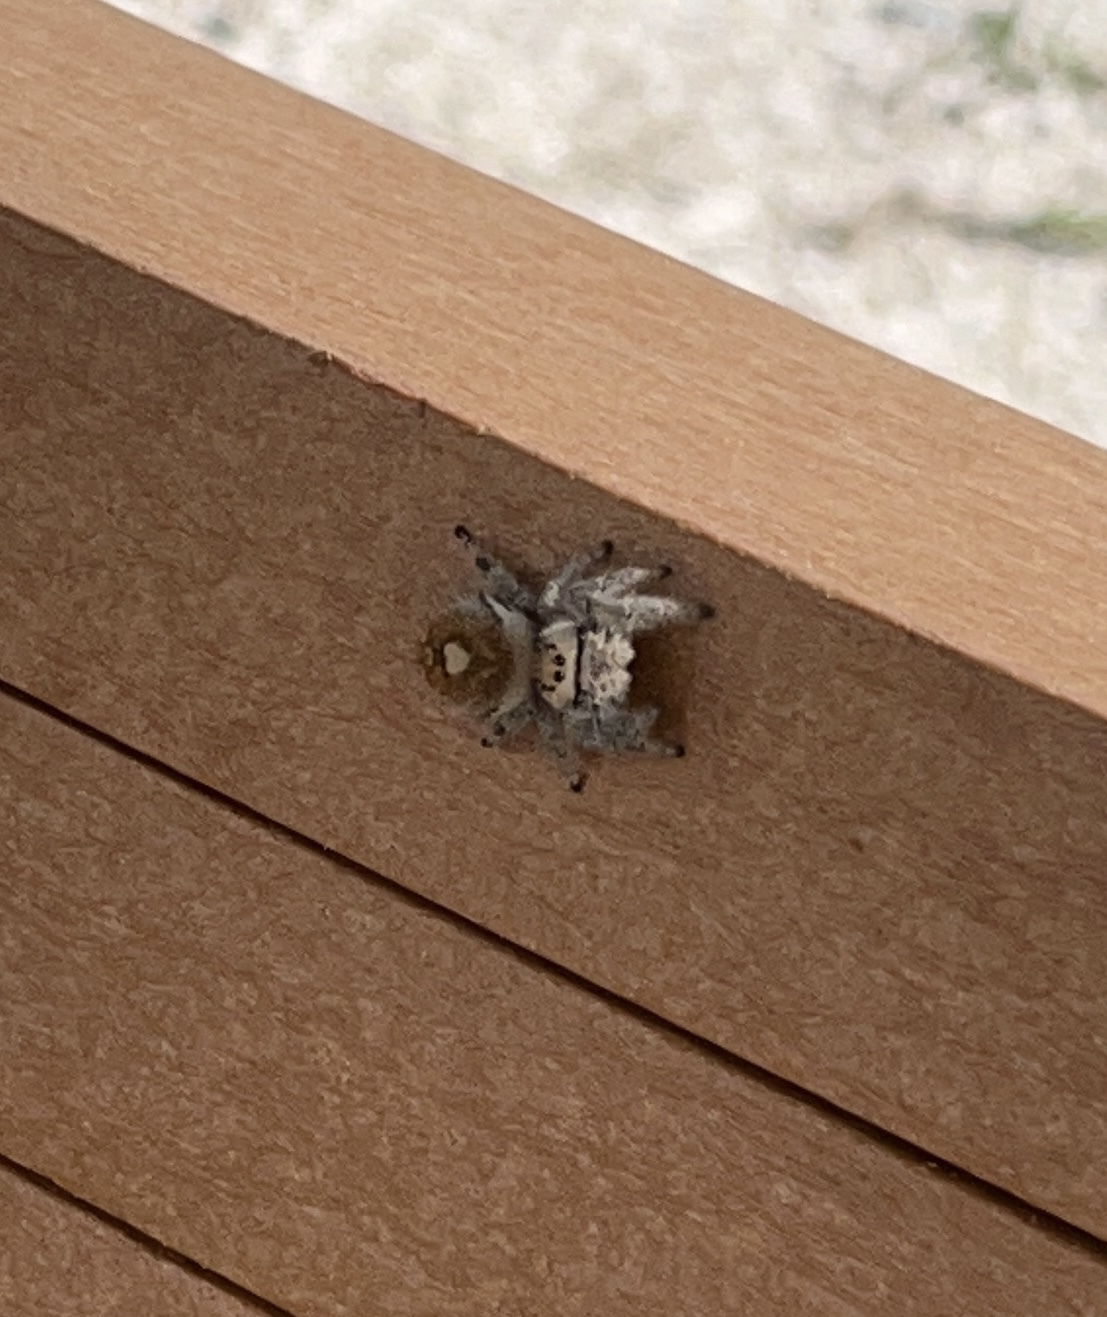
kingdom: Animalia
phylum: Arthropoda
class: Arachnida
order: Araneae
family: Salticidae
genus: Phidippus
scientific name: Phidippus regius
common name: Regal jumper
